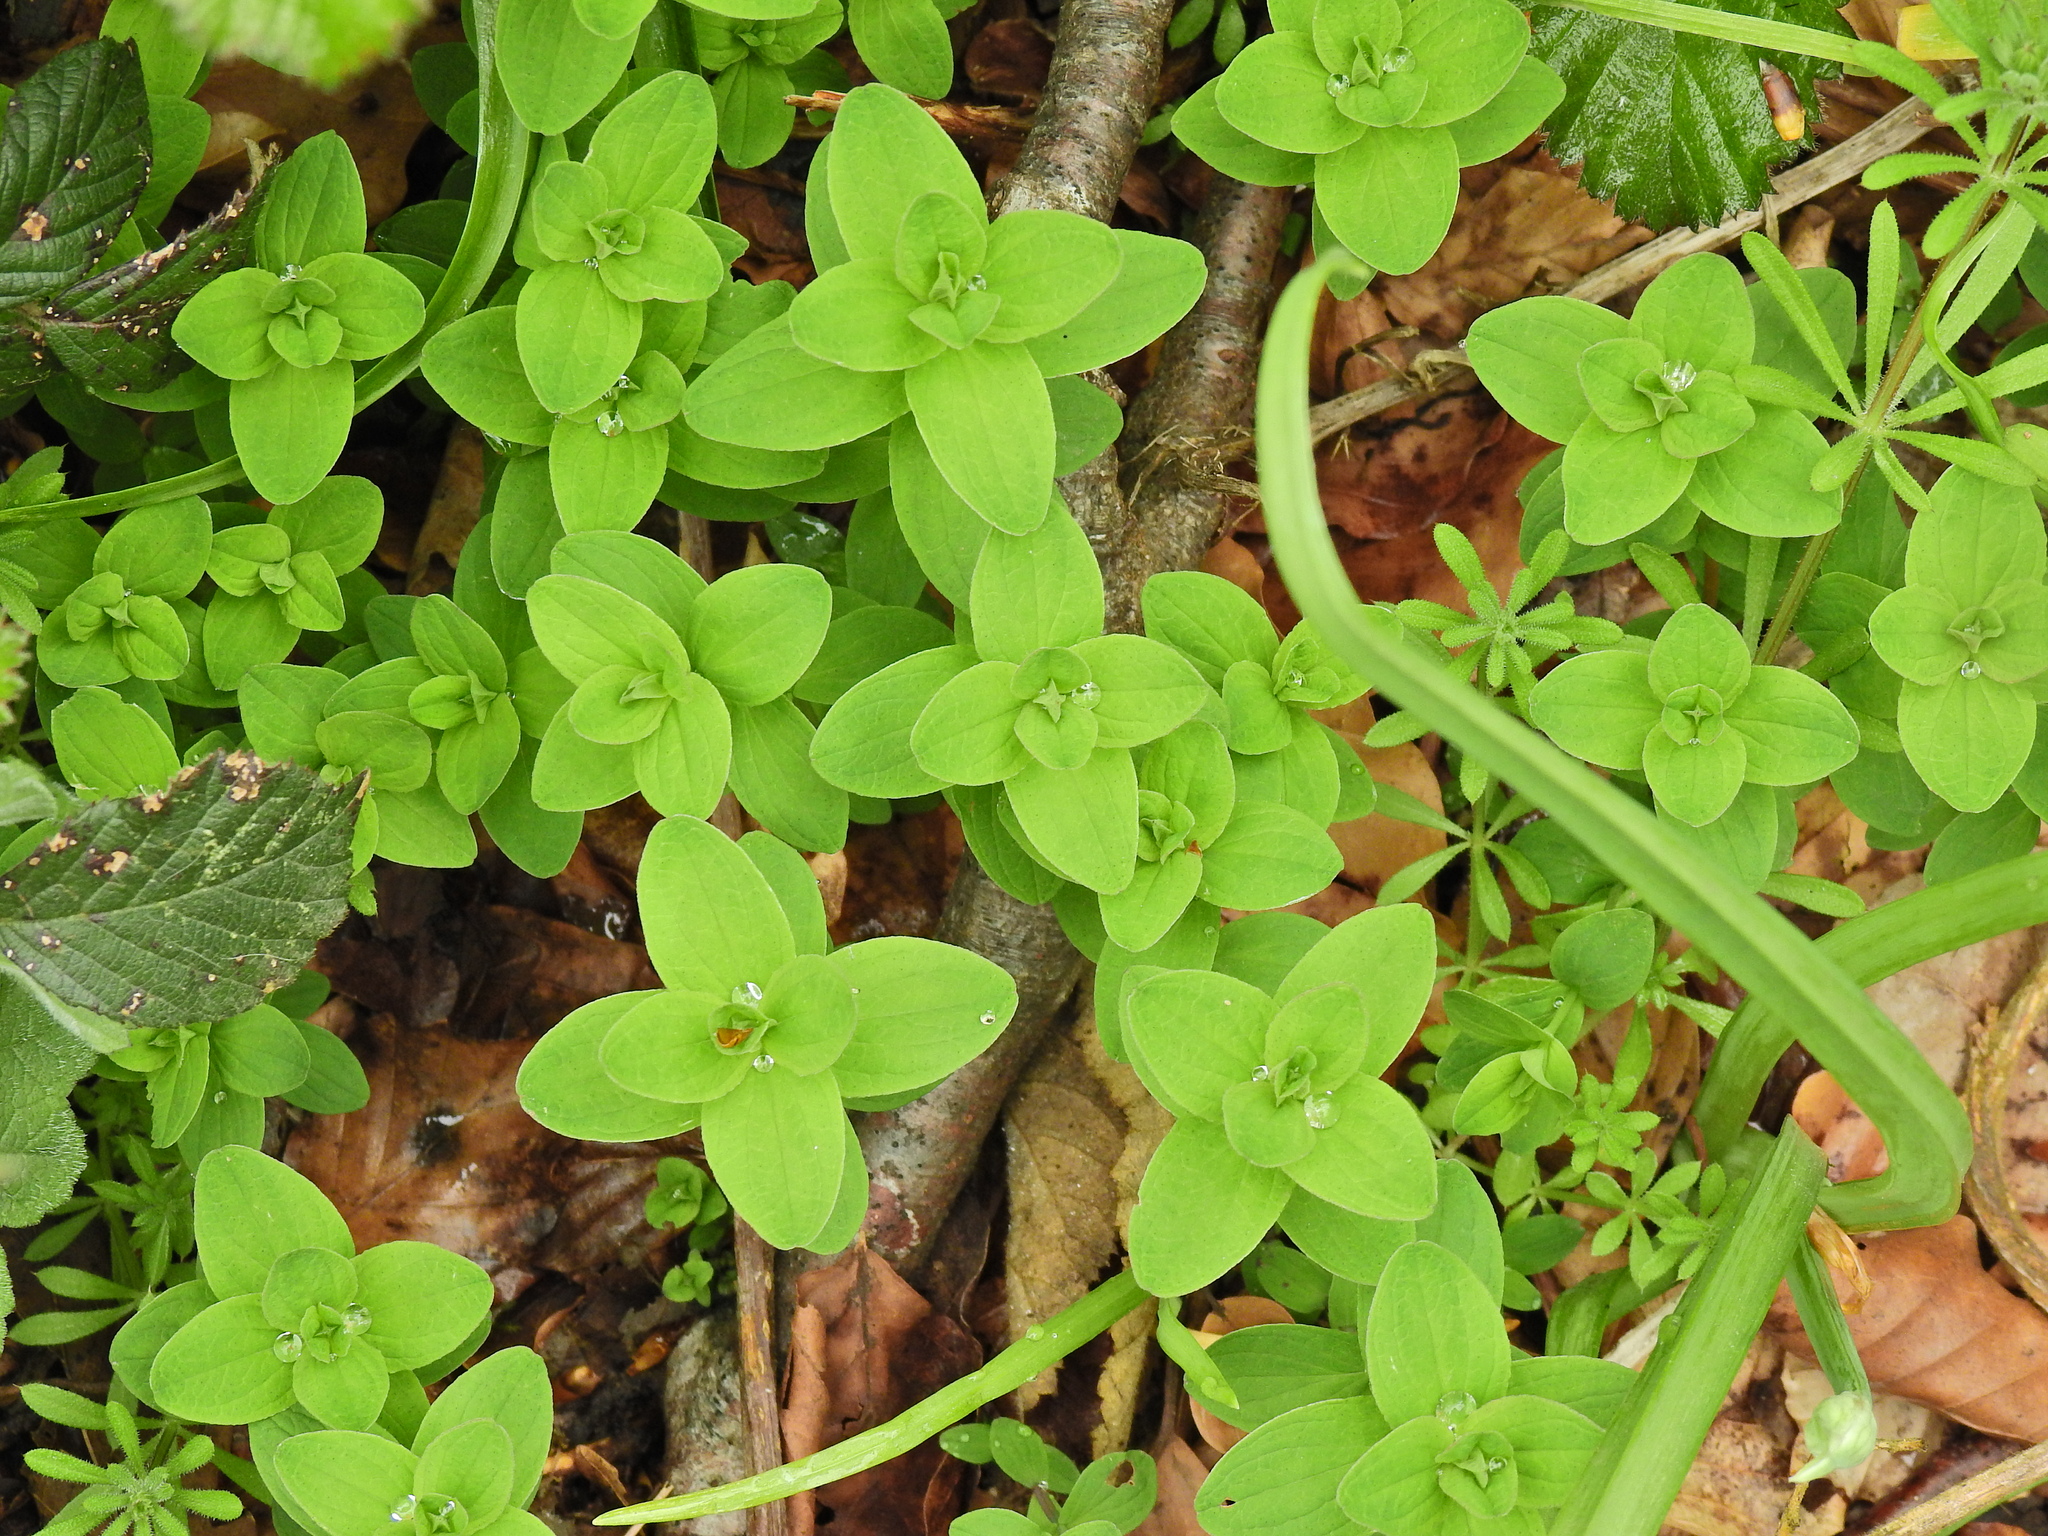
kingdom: Plantae
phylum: Tracheophyta
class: Magnoliopsida
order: Lamiales
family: Plantaginaceae
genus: Veronica
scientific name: Veronica arvensis
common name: Corn speedwell
